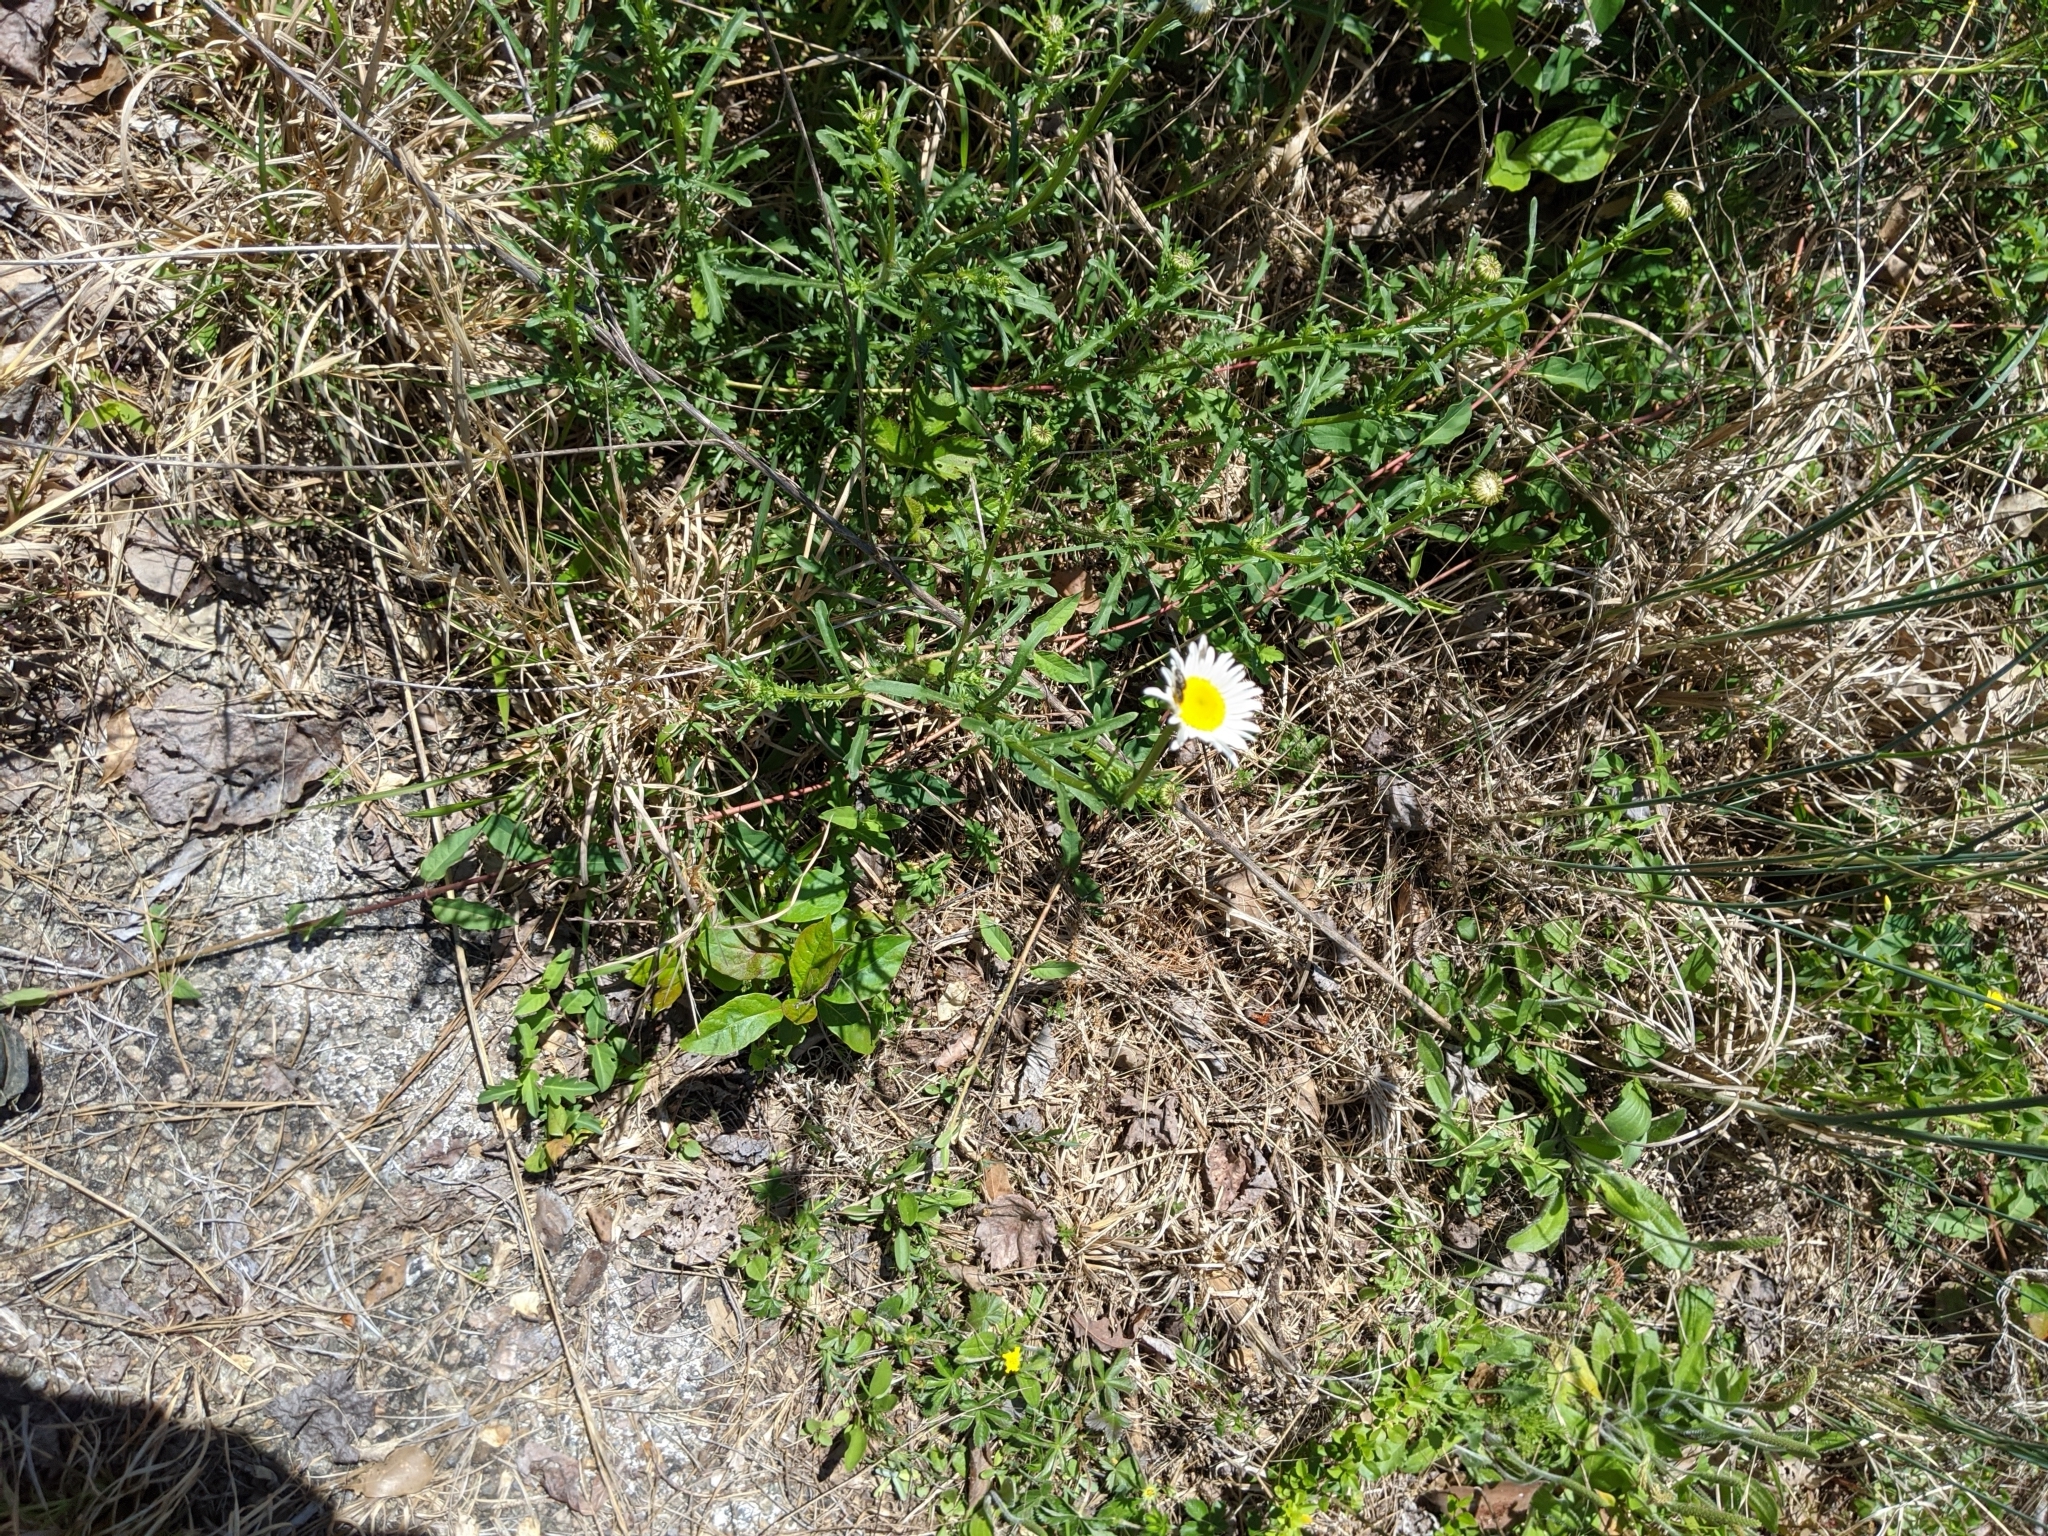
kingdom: Plantae
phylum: Tracheophyta
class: Magnoliopsida
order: Asterales
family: Asteraceae
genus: Leucanthemum
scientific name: Leucanthemum vulgare
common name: Oxeye daisy
